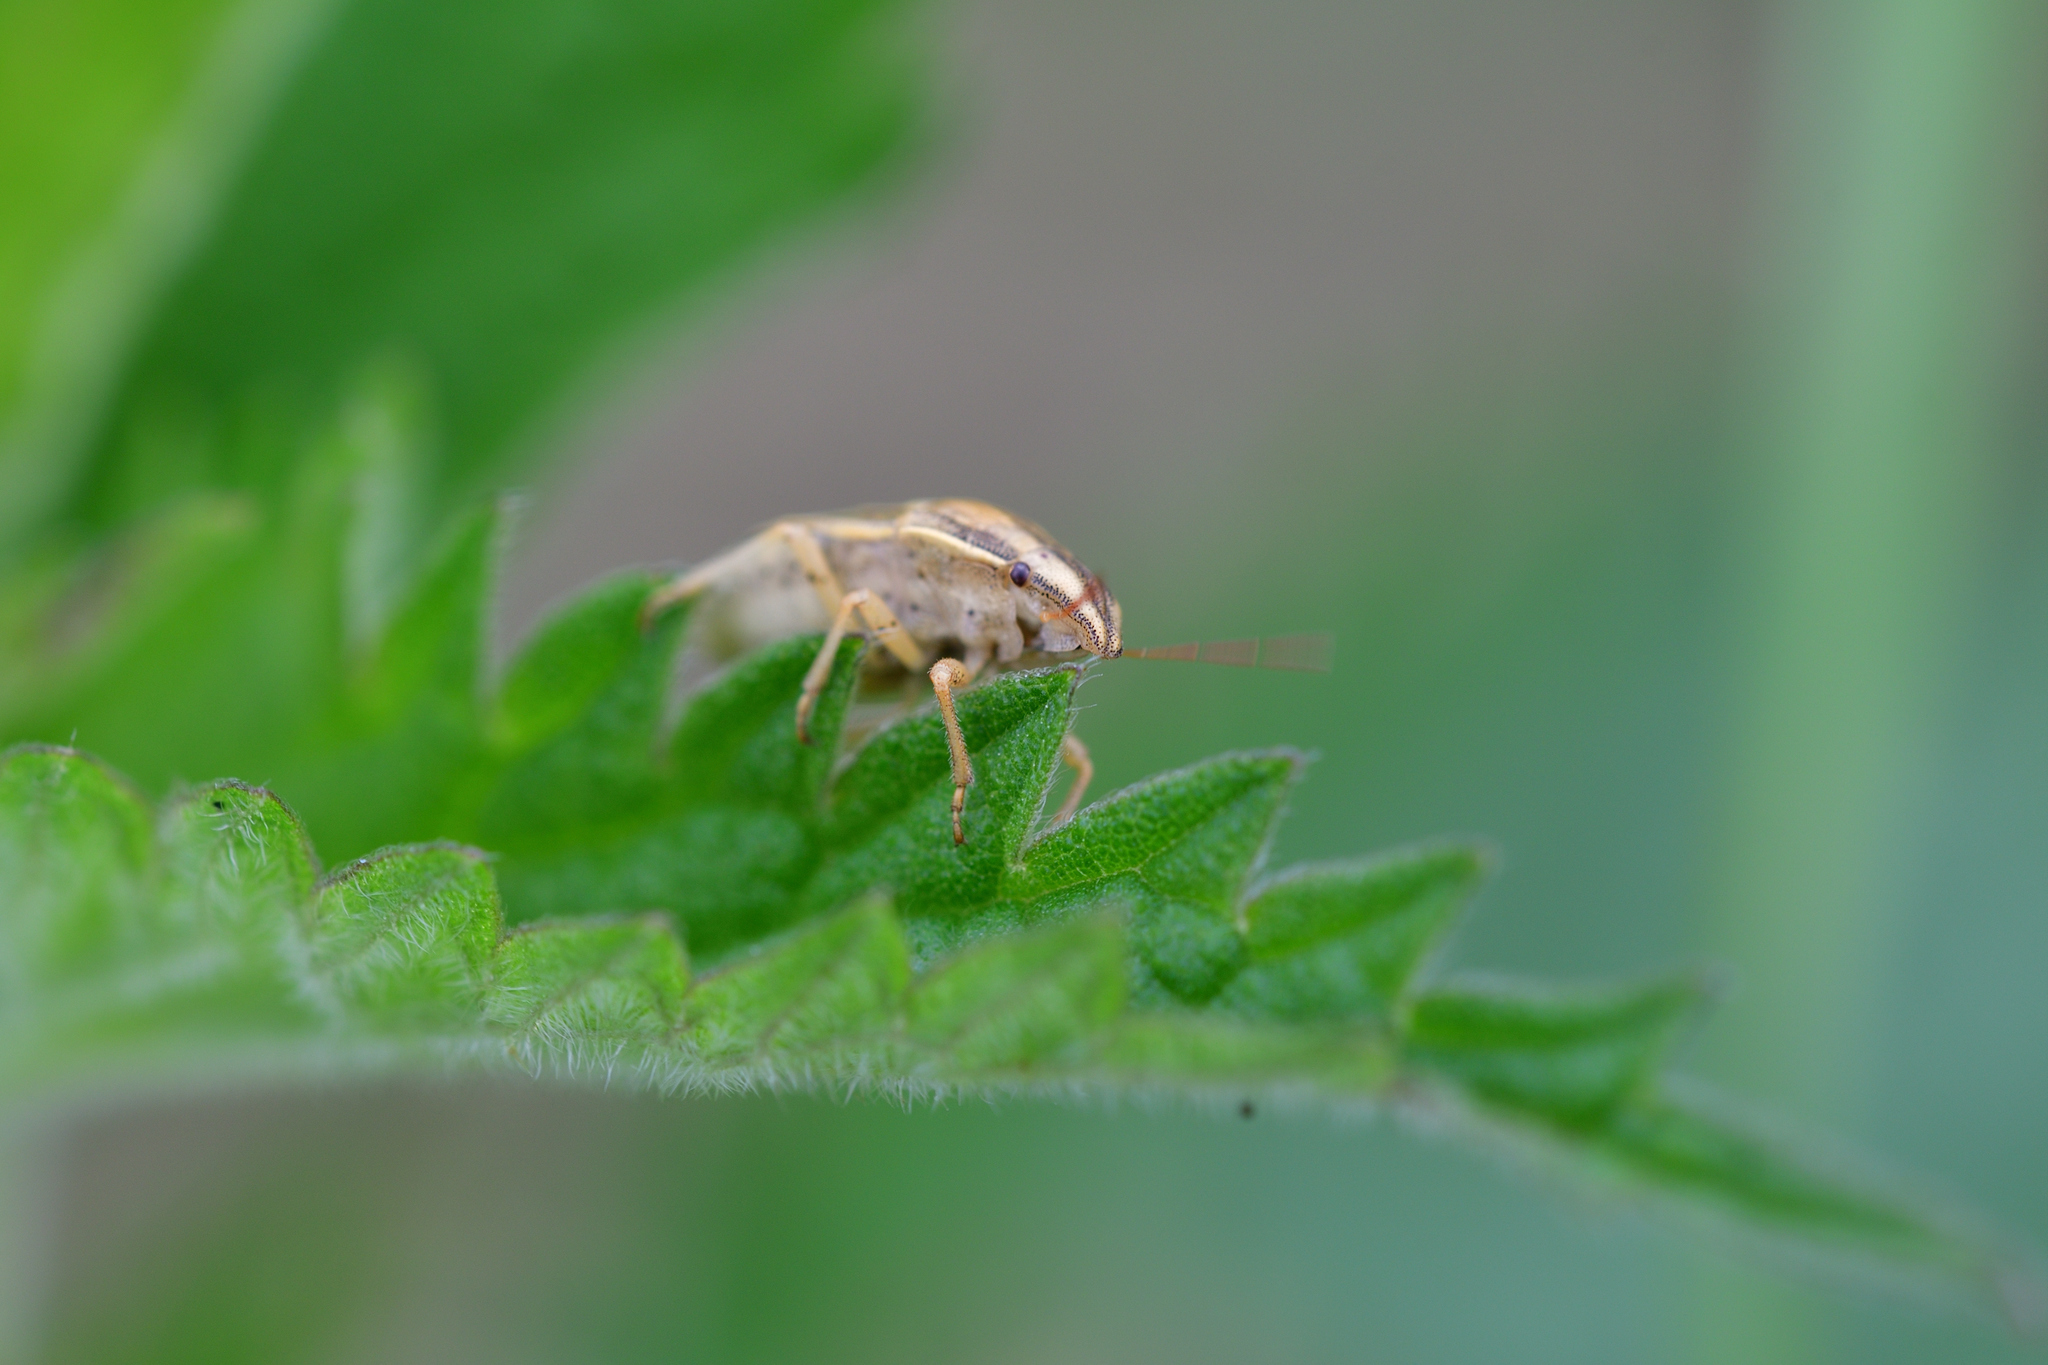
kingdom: Animalia
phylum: Arthropoda
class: Insecta
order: Hemiptera
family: Pentatomidae
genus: Aelia
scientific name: Aelia acuminata
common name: Bishop's mitre
